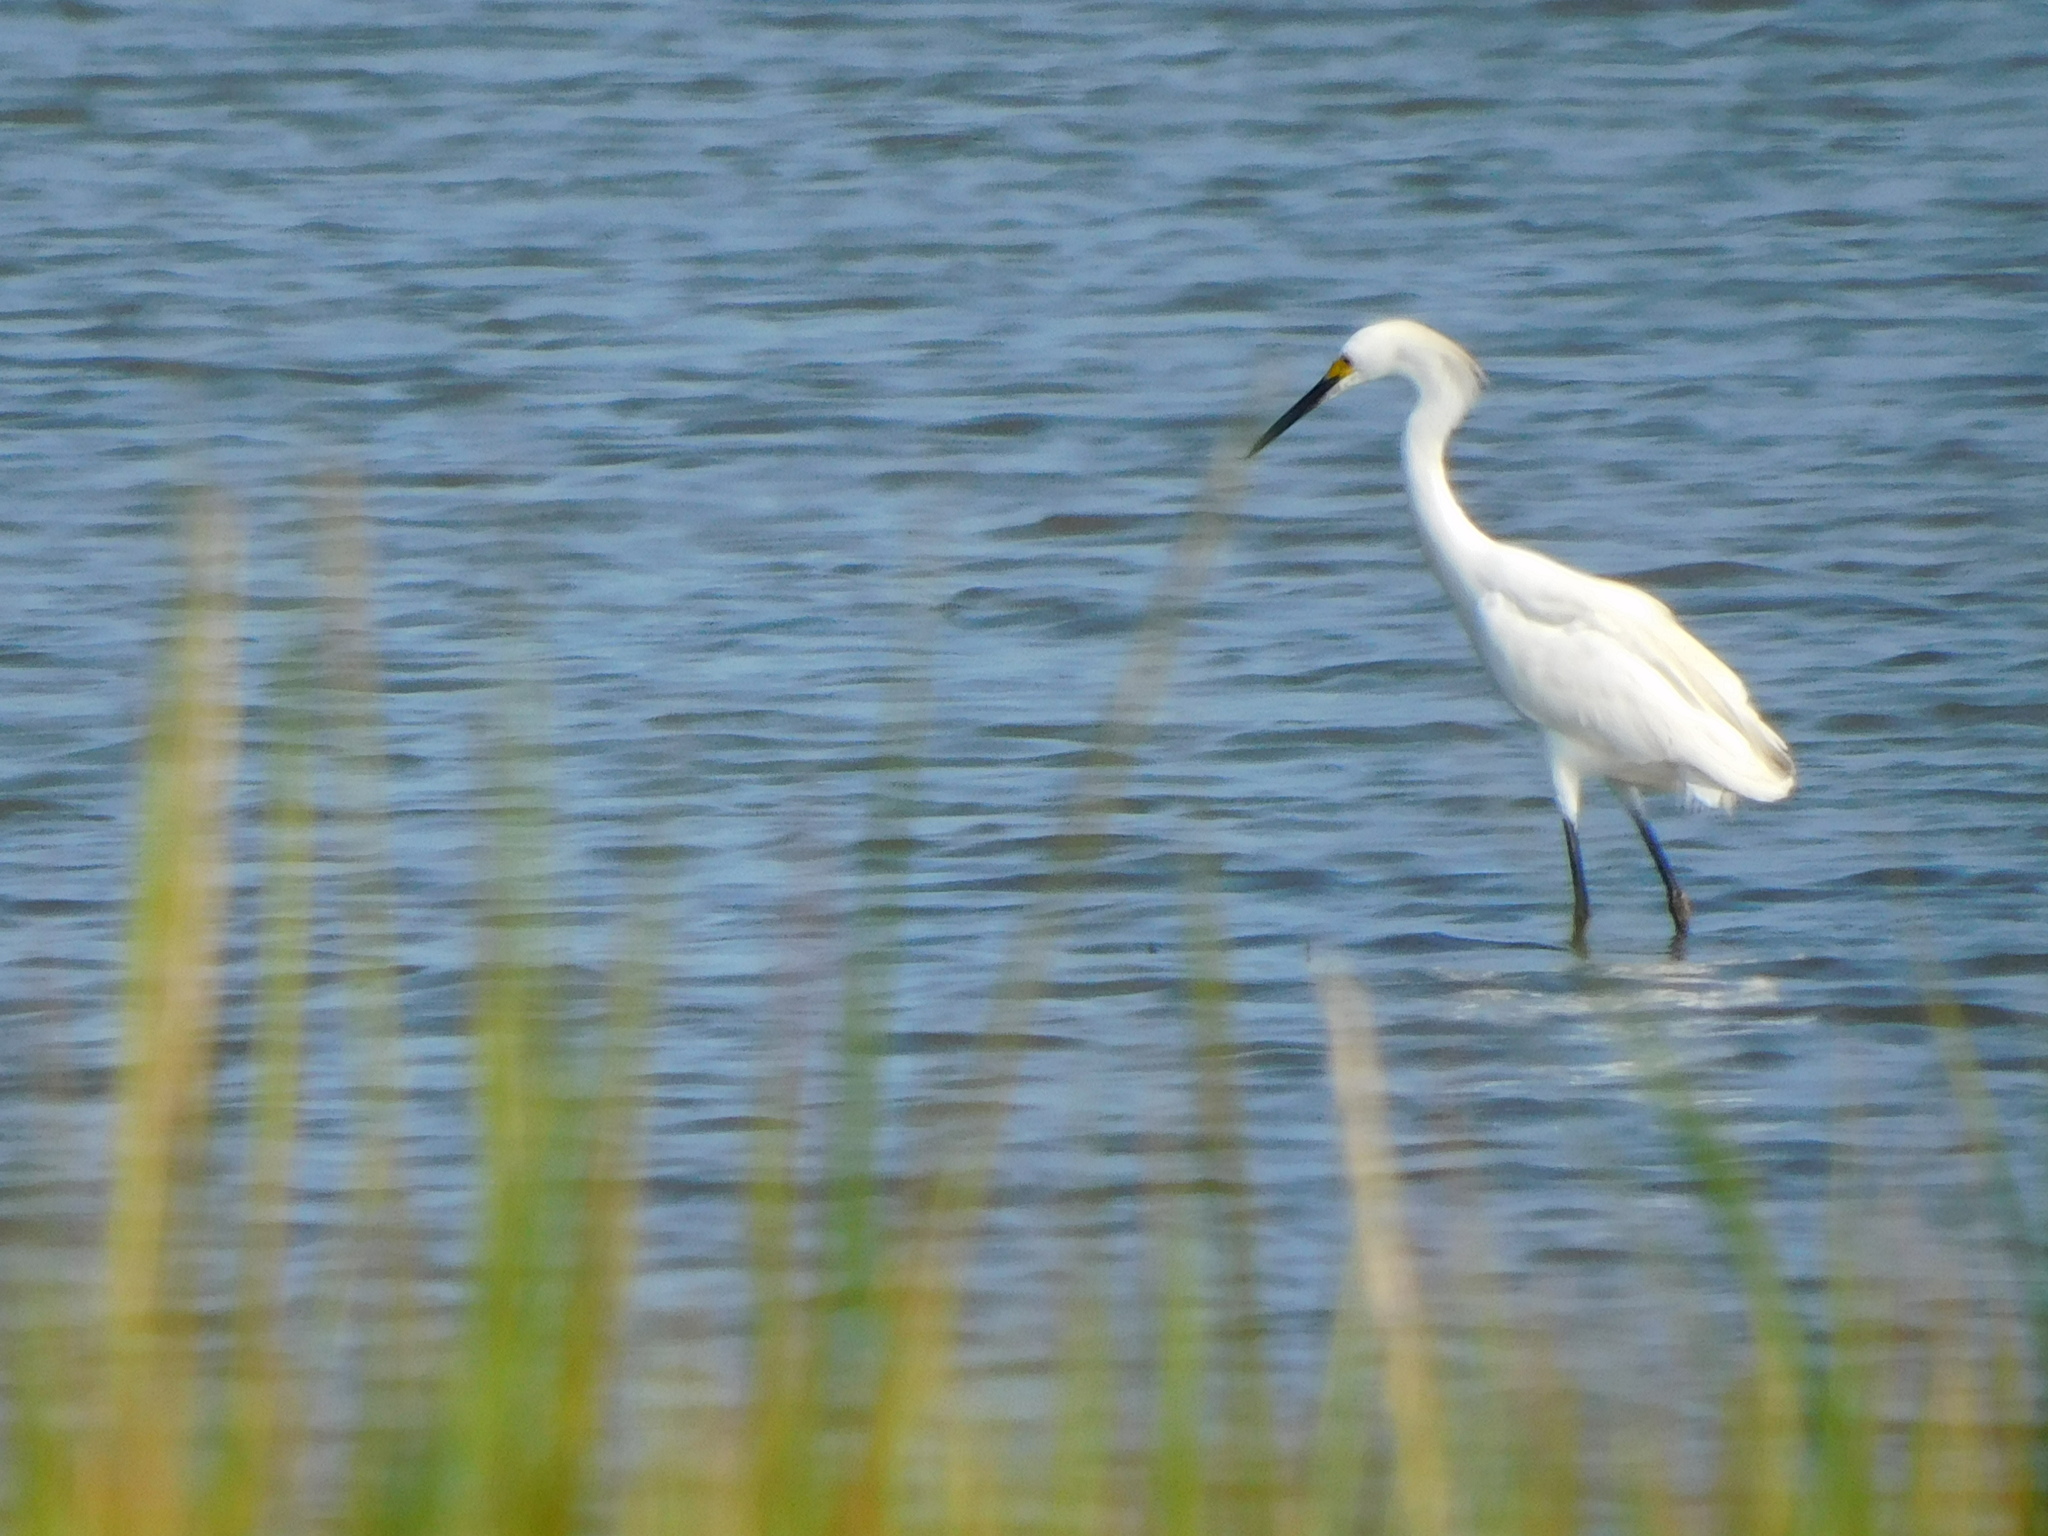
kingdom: Animalia
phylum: Chordata
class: Aves
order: Pelecaniformes
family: Ardeidae
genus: Egretta
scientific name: Egretta thula
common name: Snowy egret
